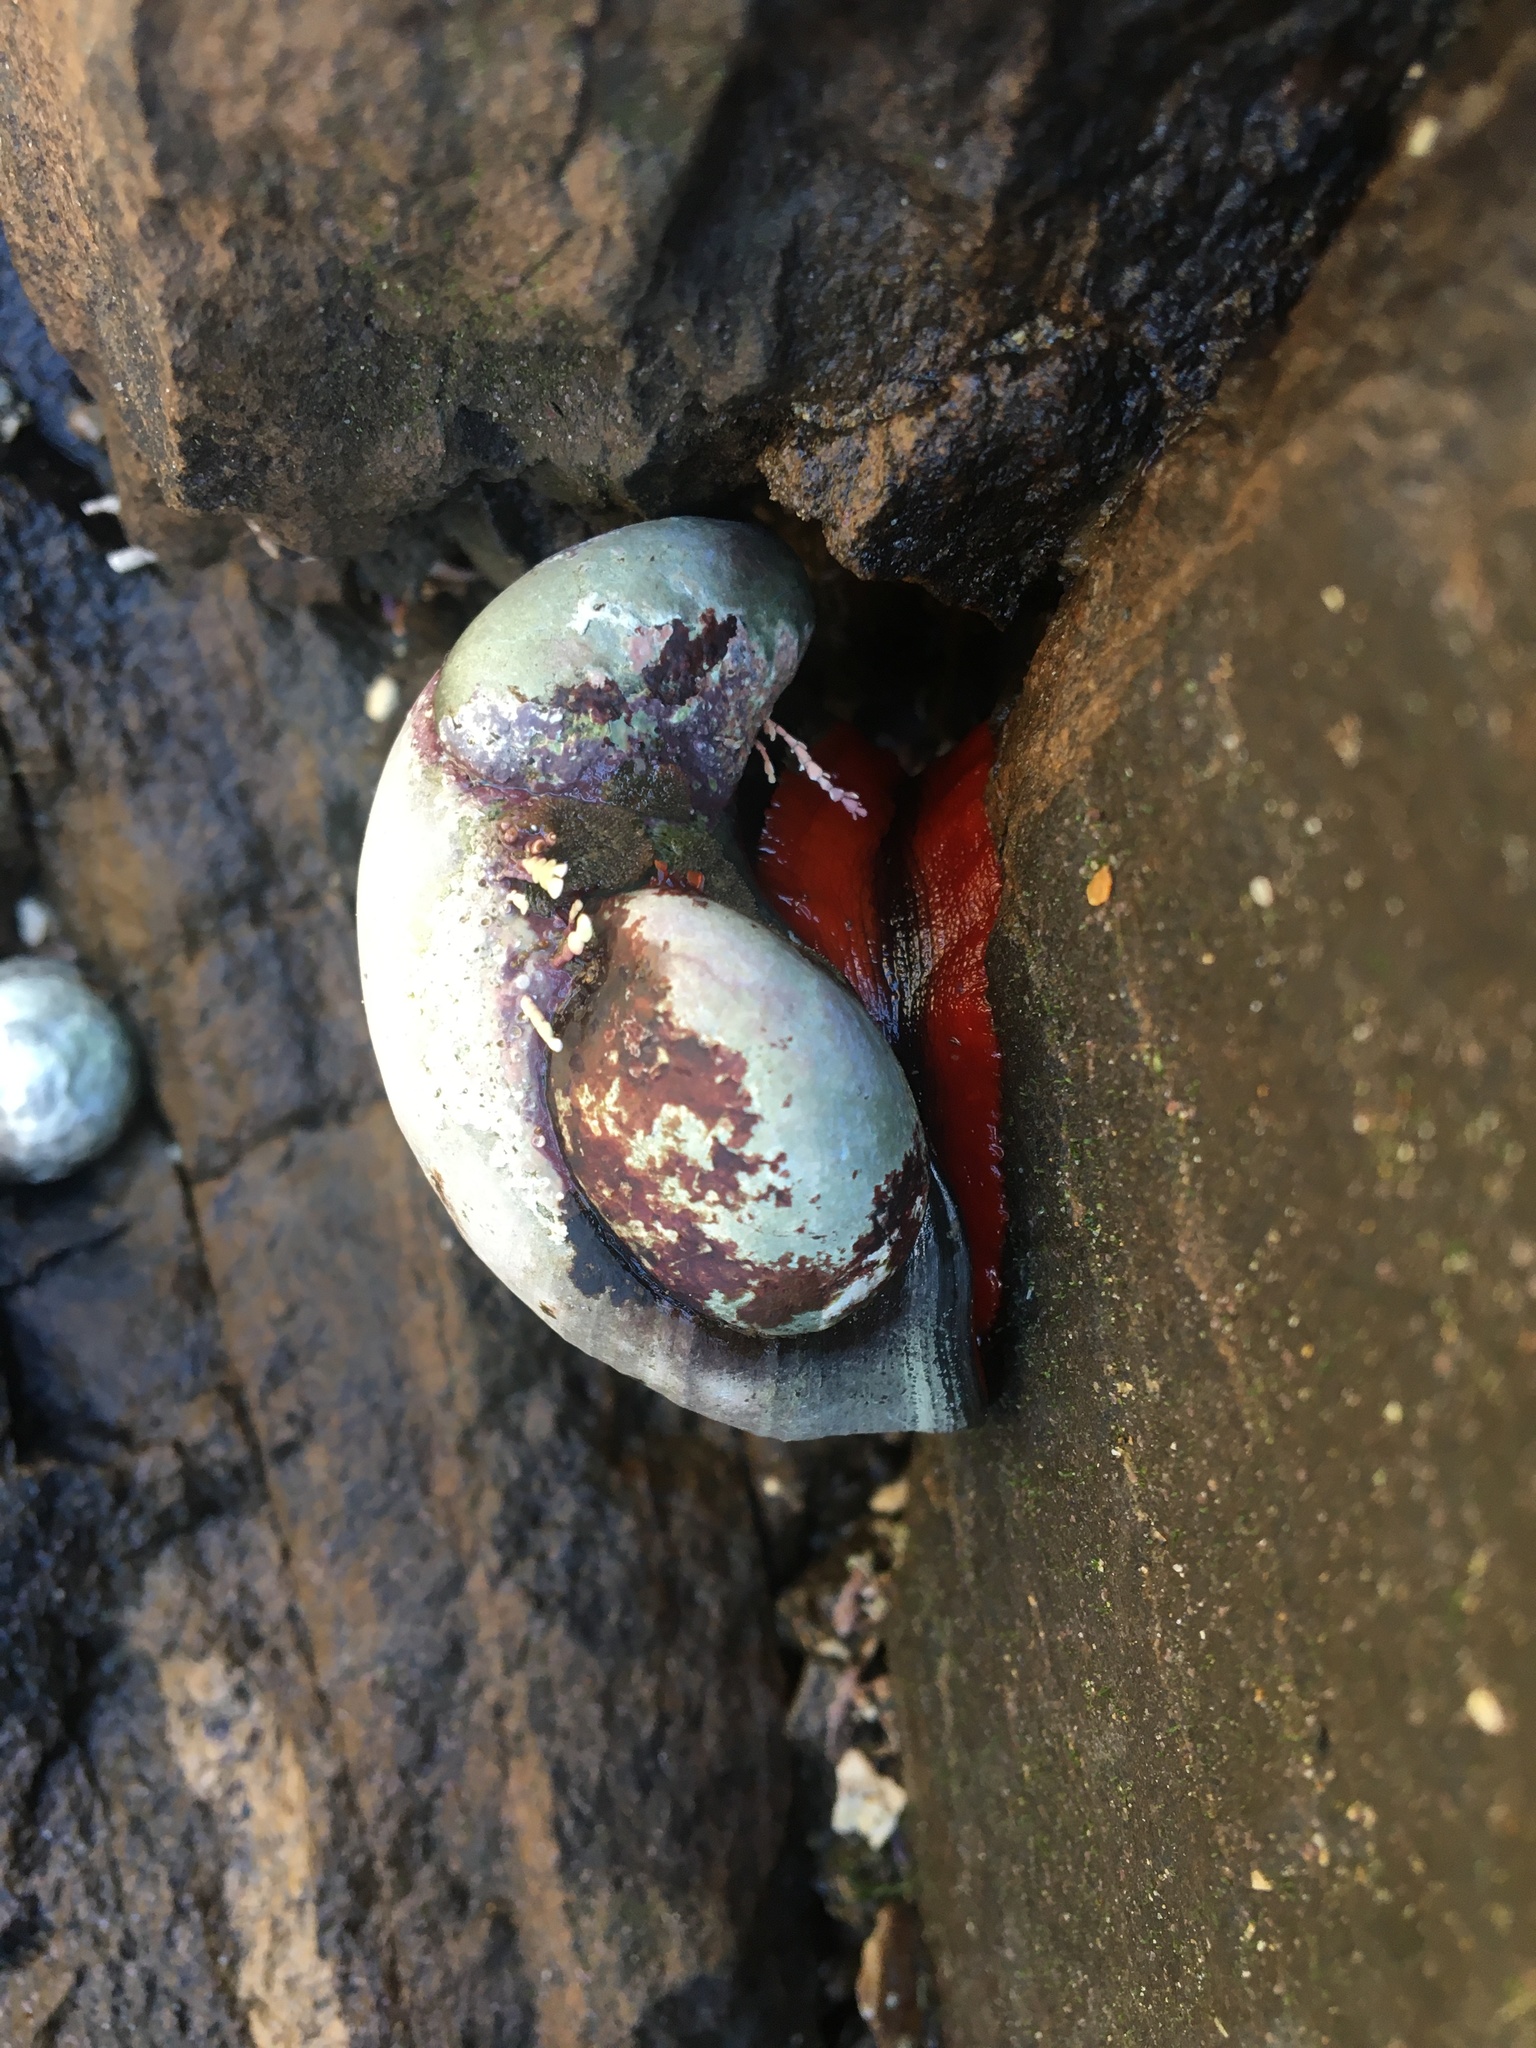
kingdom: Animalia
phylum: Mollusca
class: Gastropoda
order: Trochida
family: Tegulidae
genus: Norrisia
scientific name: Norrisia norrisii
